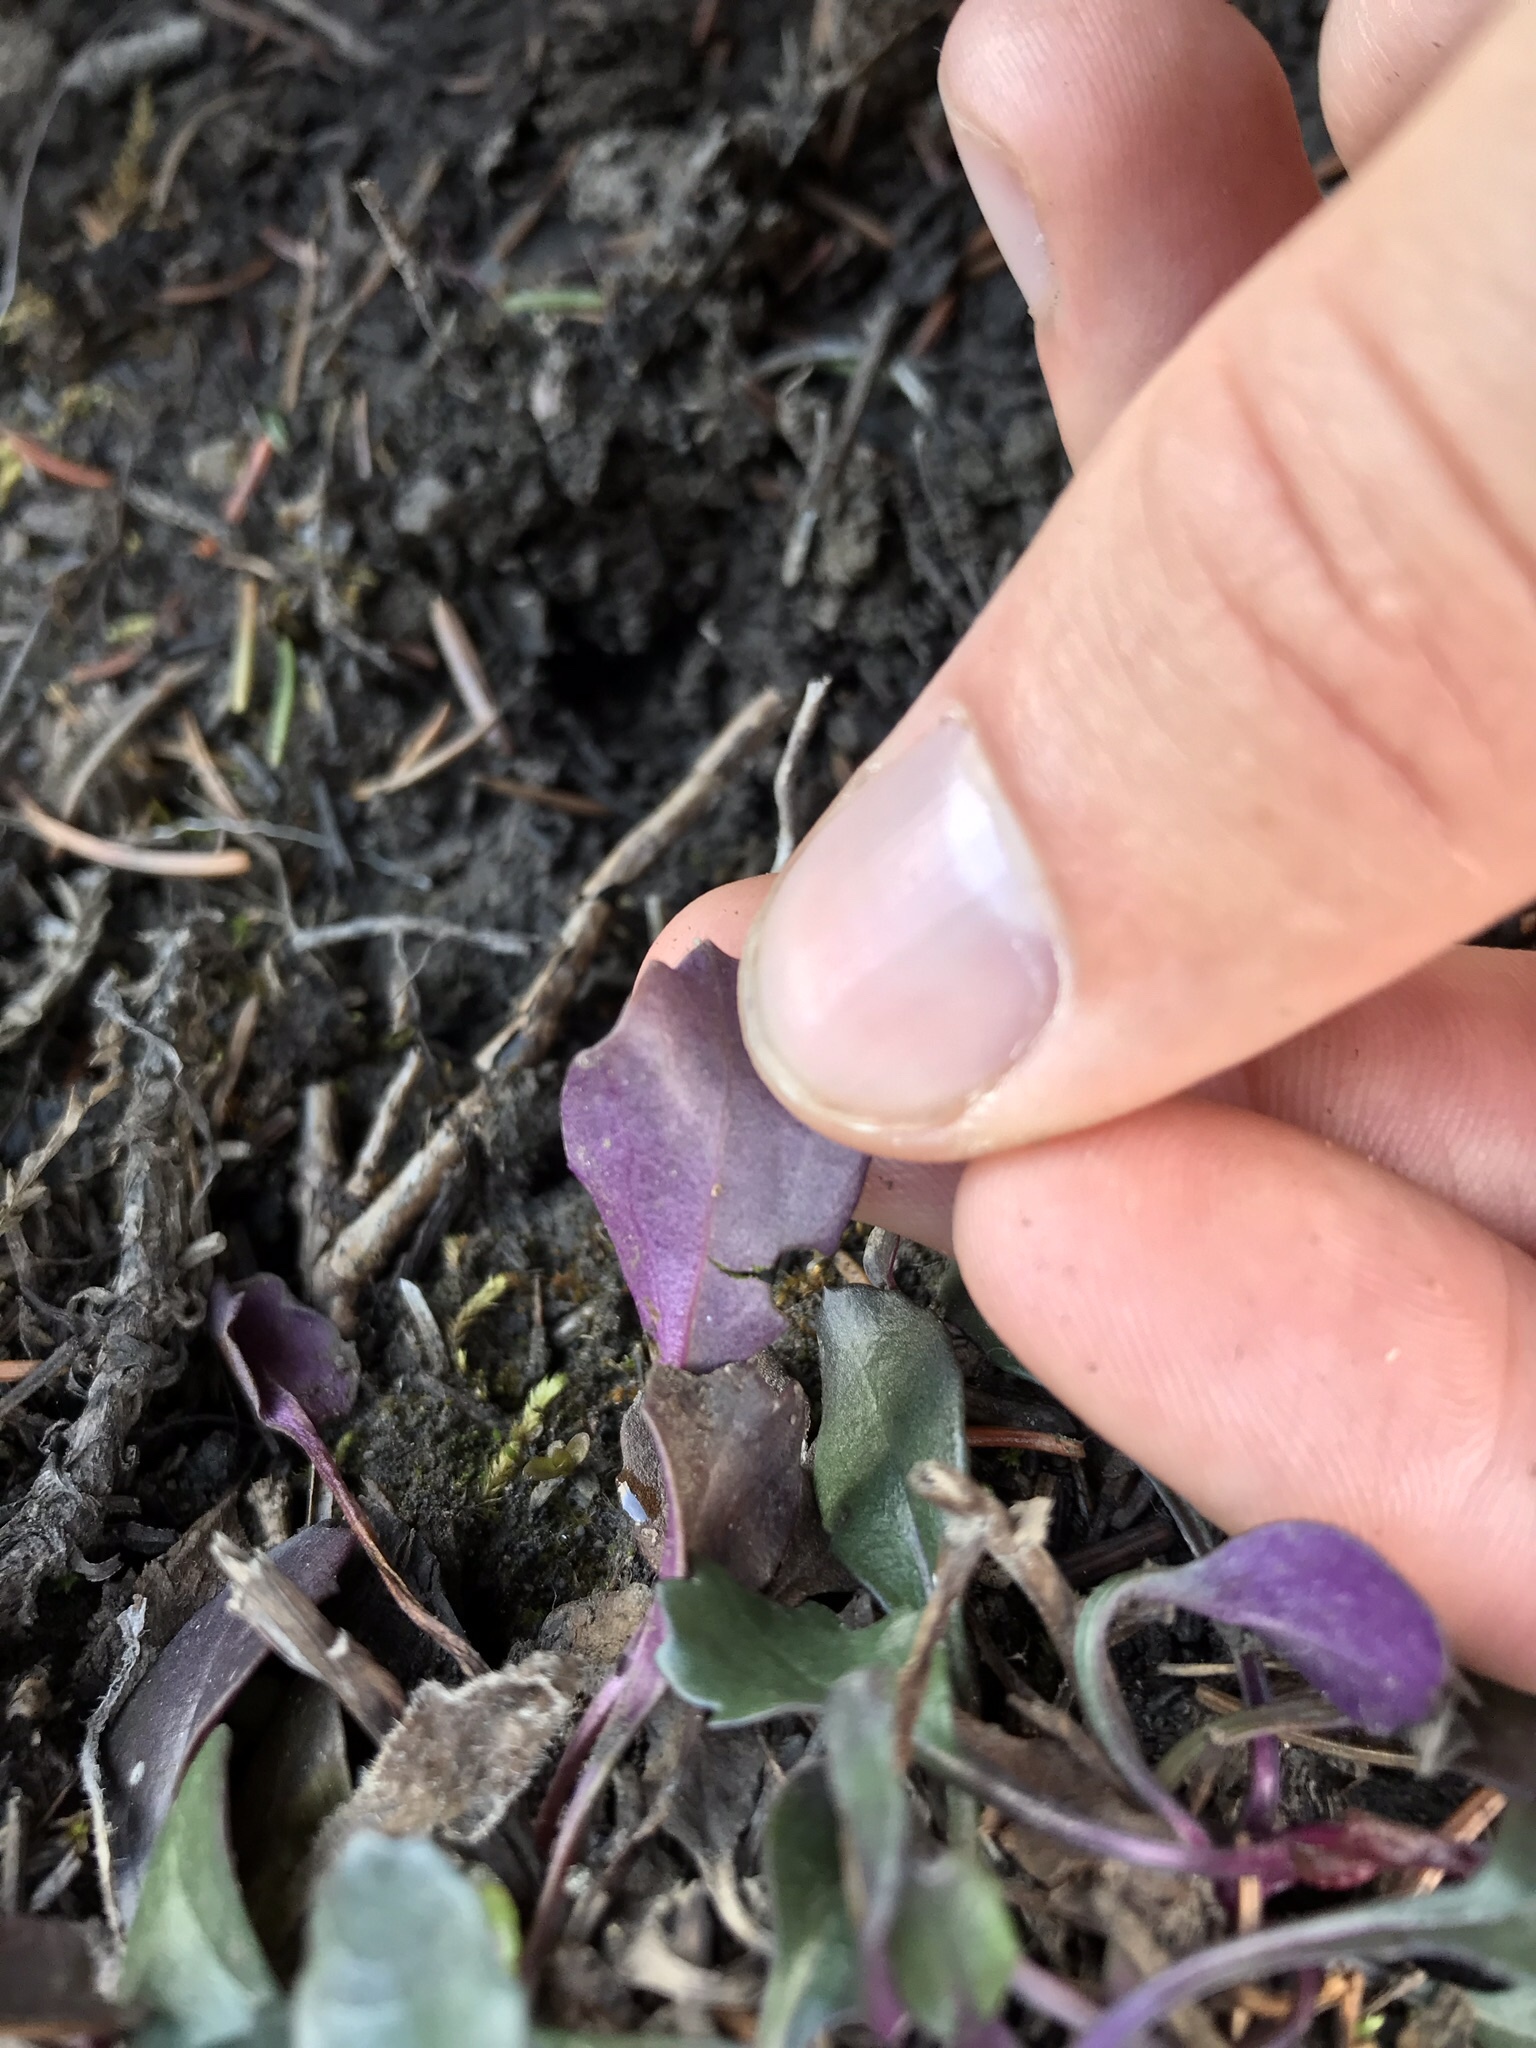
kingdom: Plantae
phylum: Tracheophyta
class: Magnoliopsida
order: Asterales
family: Asteraceae
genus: Packera
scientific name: Packera streptanthifolia
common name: Rocky mountain butterweed
